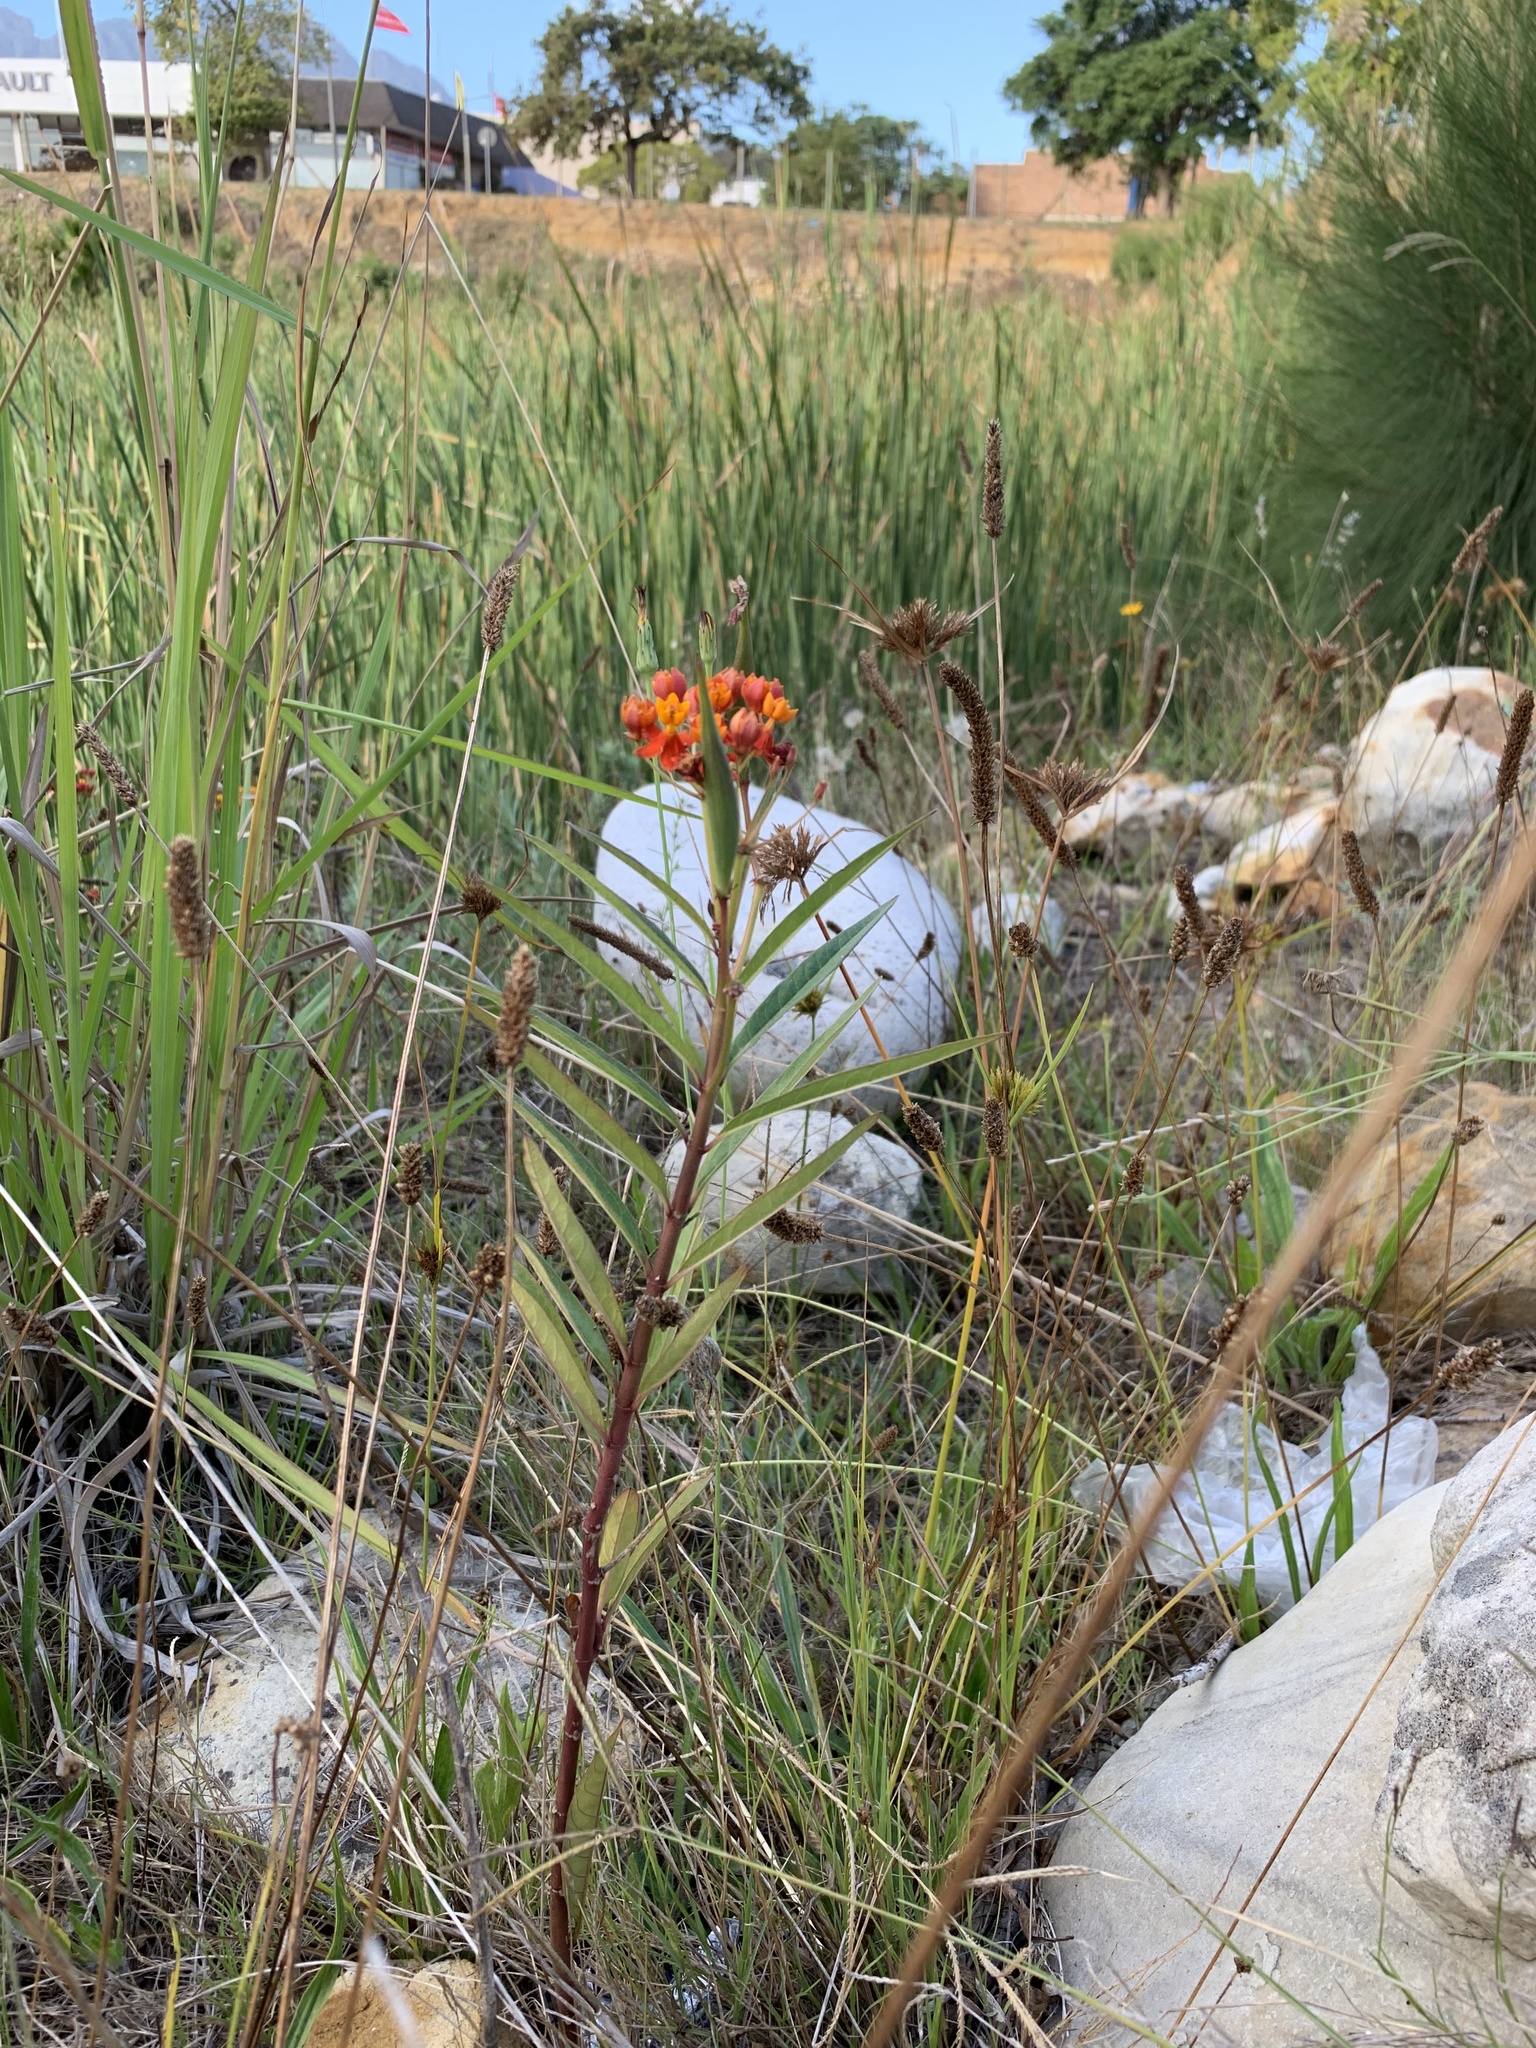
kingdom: Plantae
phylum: Tracheophyta
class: Magnoliopsida
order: Gentianales
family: Apocynaceae
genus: Asclepias
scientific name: Asclepias curassavica
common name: Bloodflower
